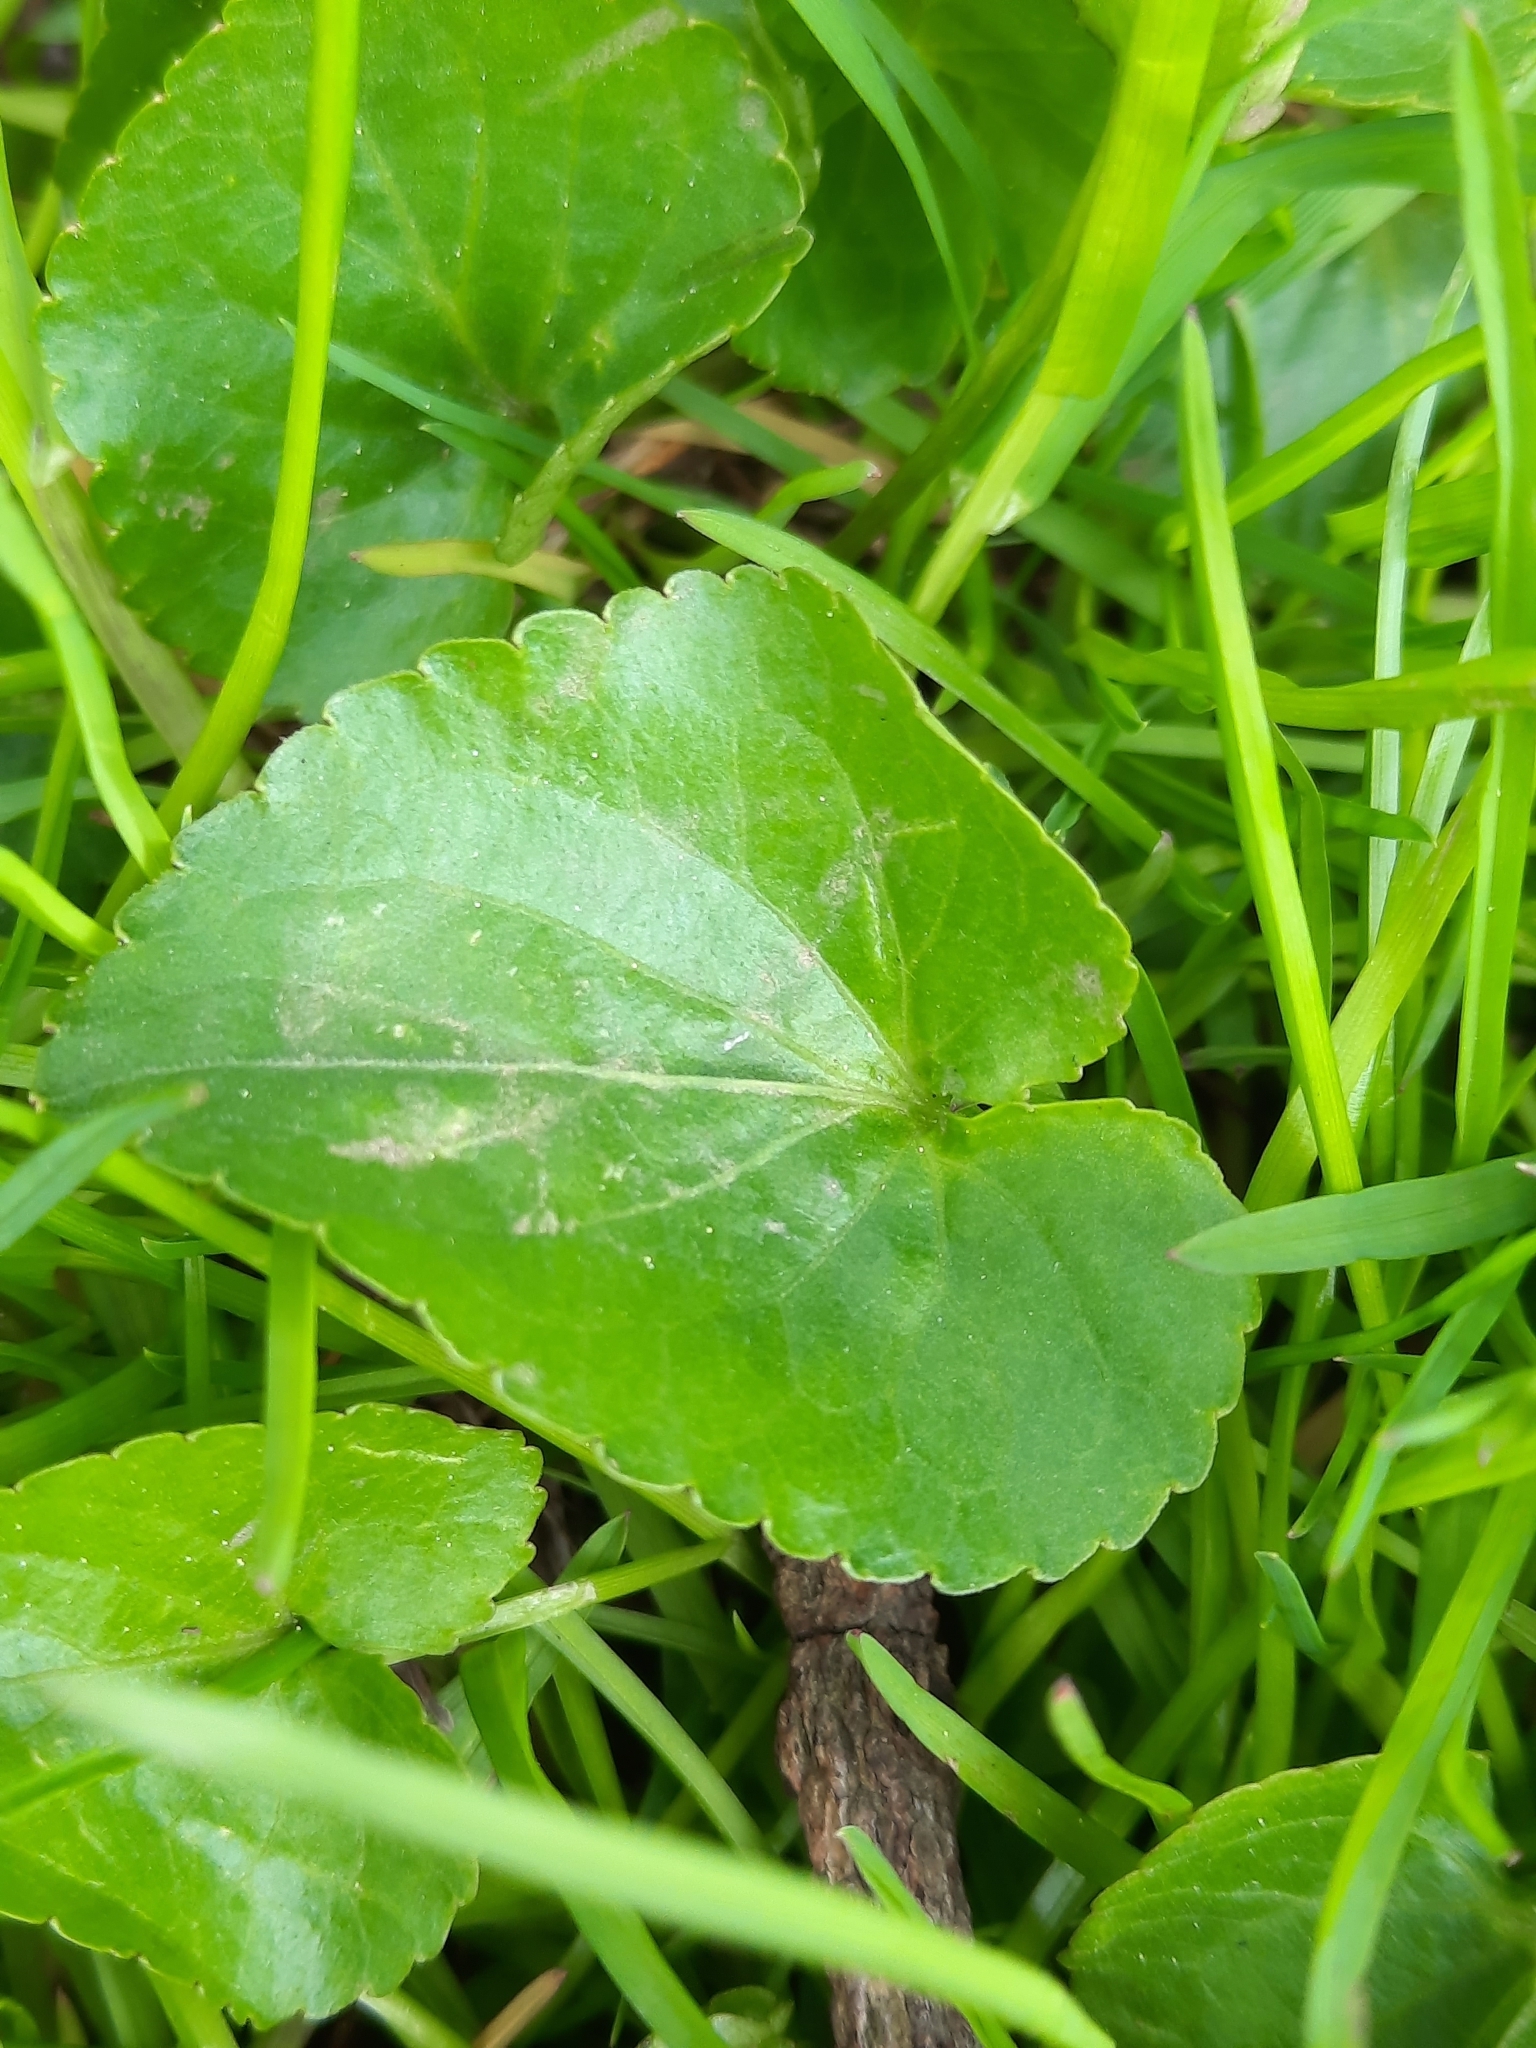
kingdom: Plantae
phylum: Tracheophyta
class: Magnoliopsida
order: Malpighiales
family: Violaceae
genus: Viola
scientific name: Viola sororia
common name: Dooryard violet
